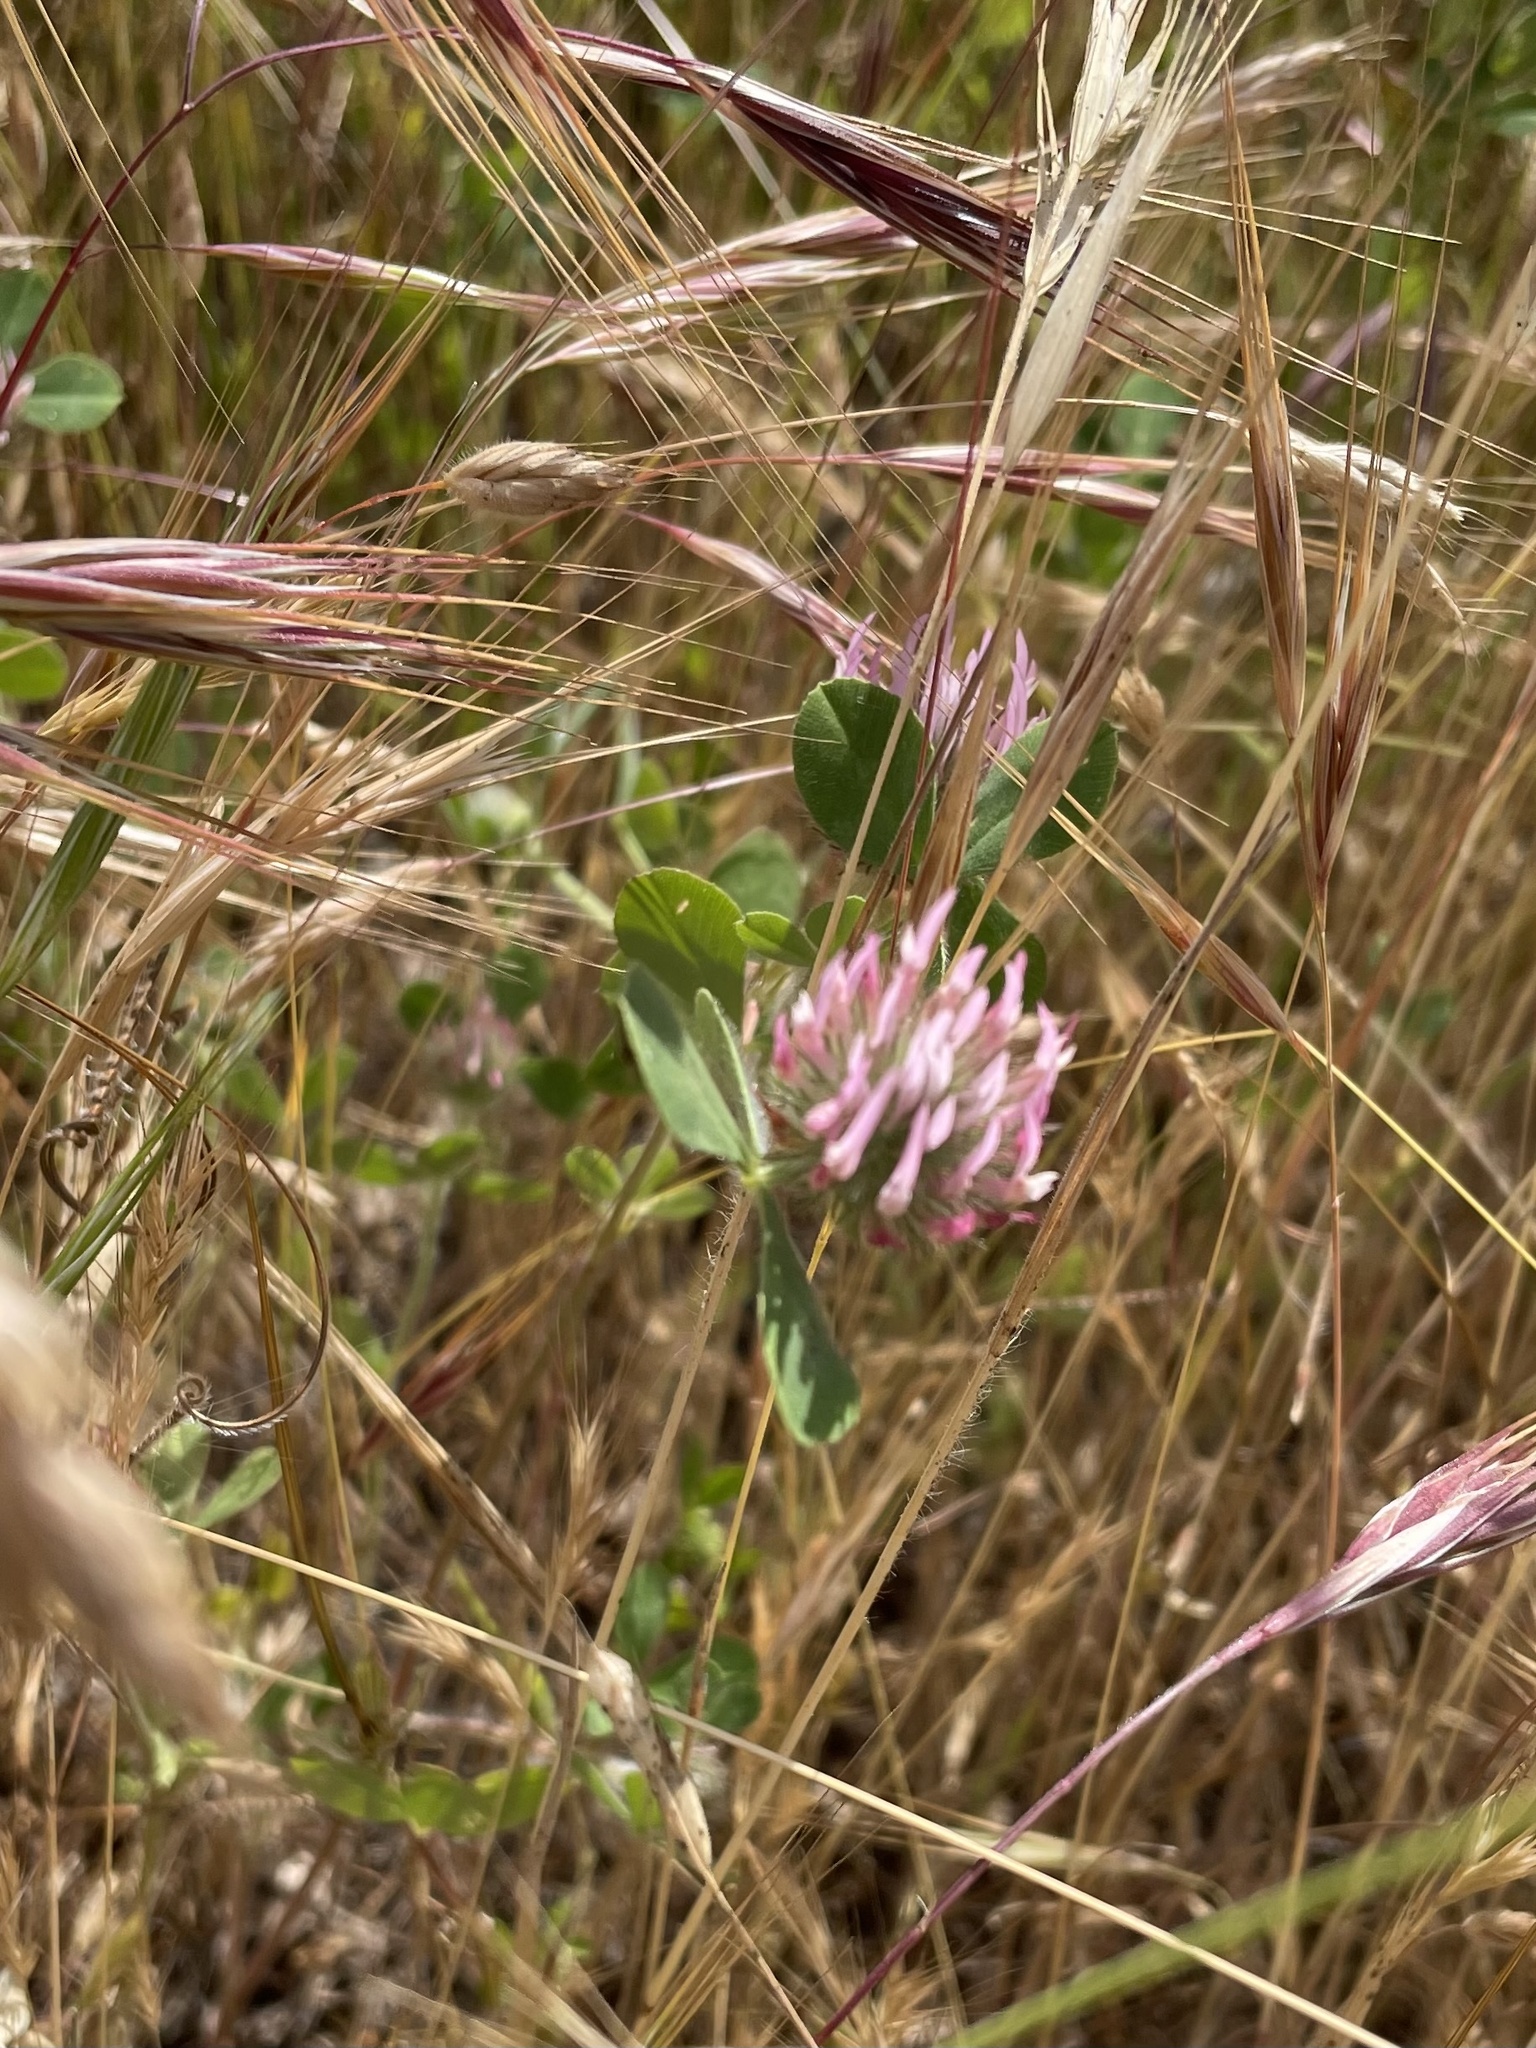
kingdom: Plantae
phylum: Tracheophyta
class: Magnoliopsida
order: Fabales
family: Fabaceae
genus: Trifolium
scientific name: Trifolium hirtum
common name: Rose clover
